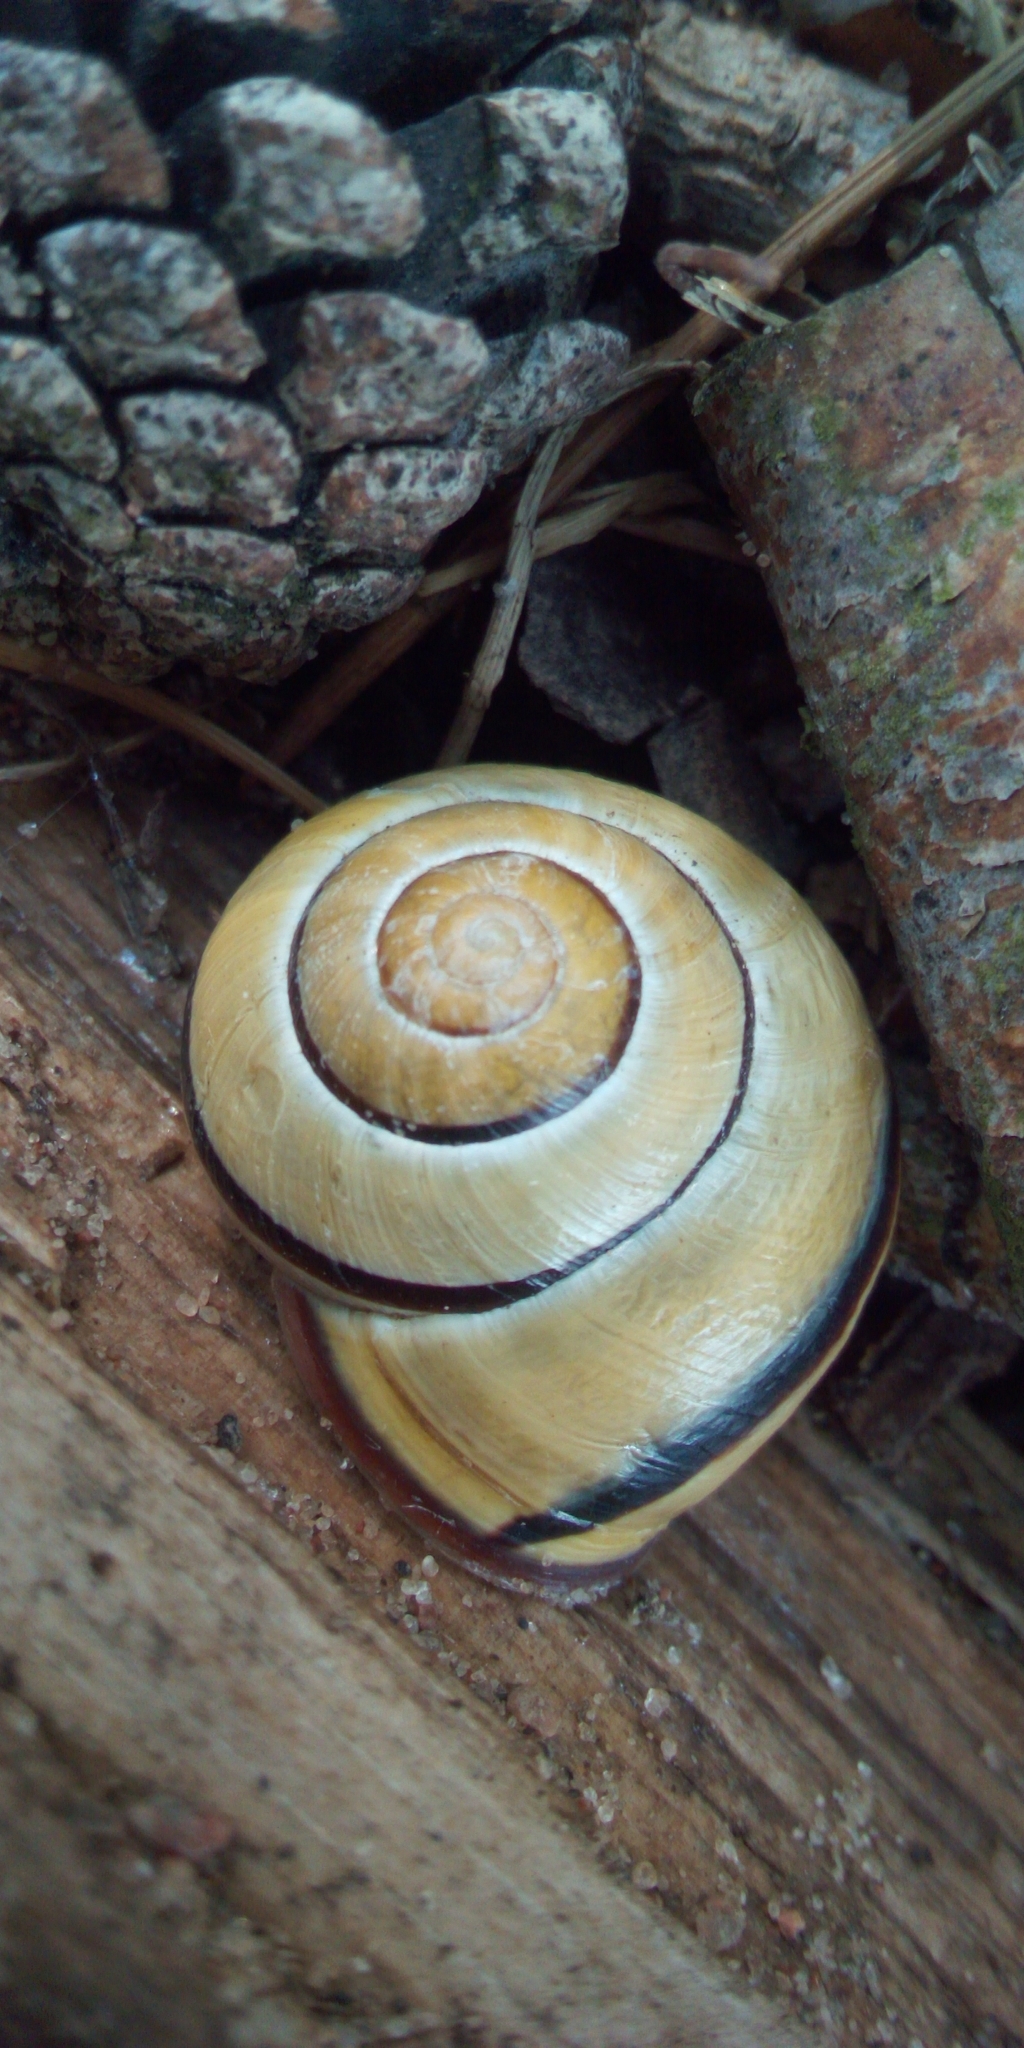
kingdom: Animalia
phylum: Mollusca
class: Gastropoda
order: Stylommatophora
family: Helicidae
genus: Cepaea
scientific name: Cepaea nemoralis
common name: Grovesnail
